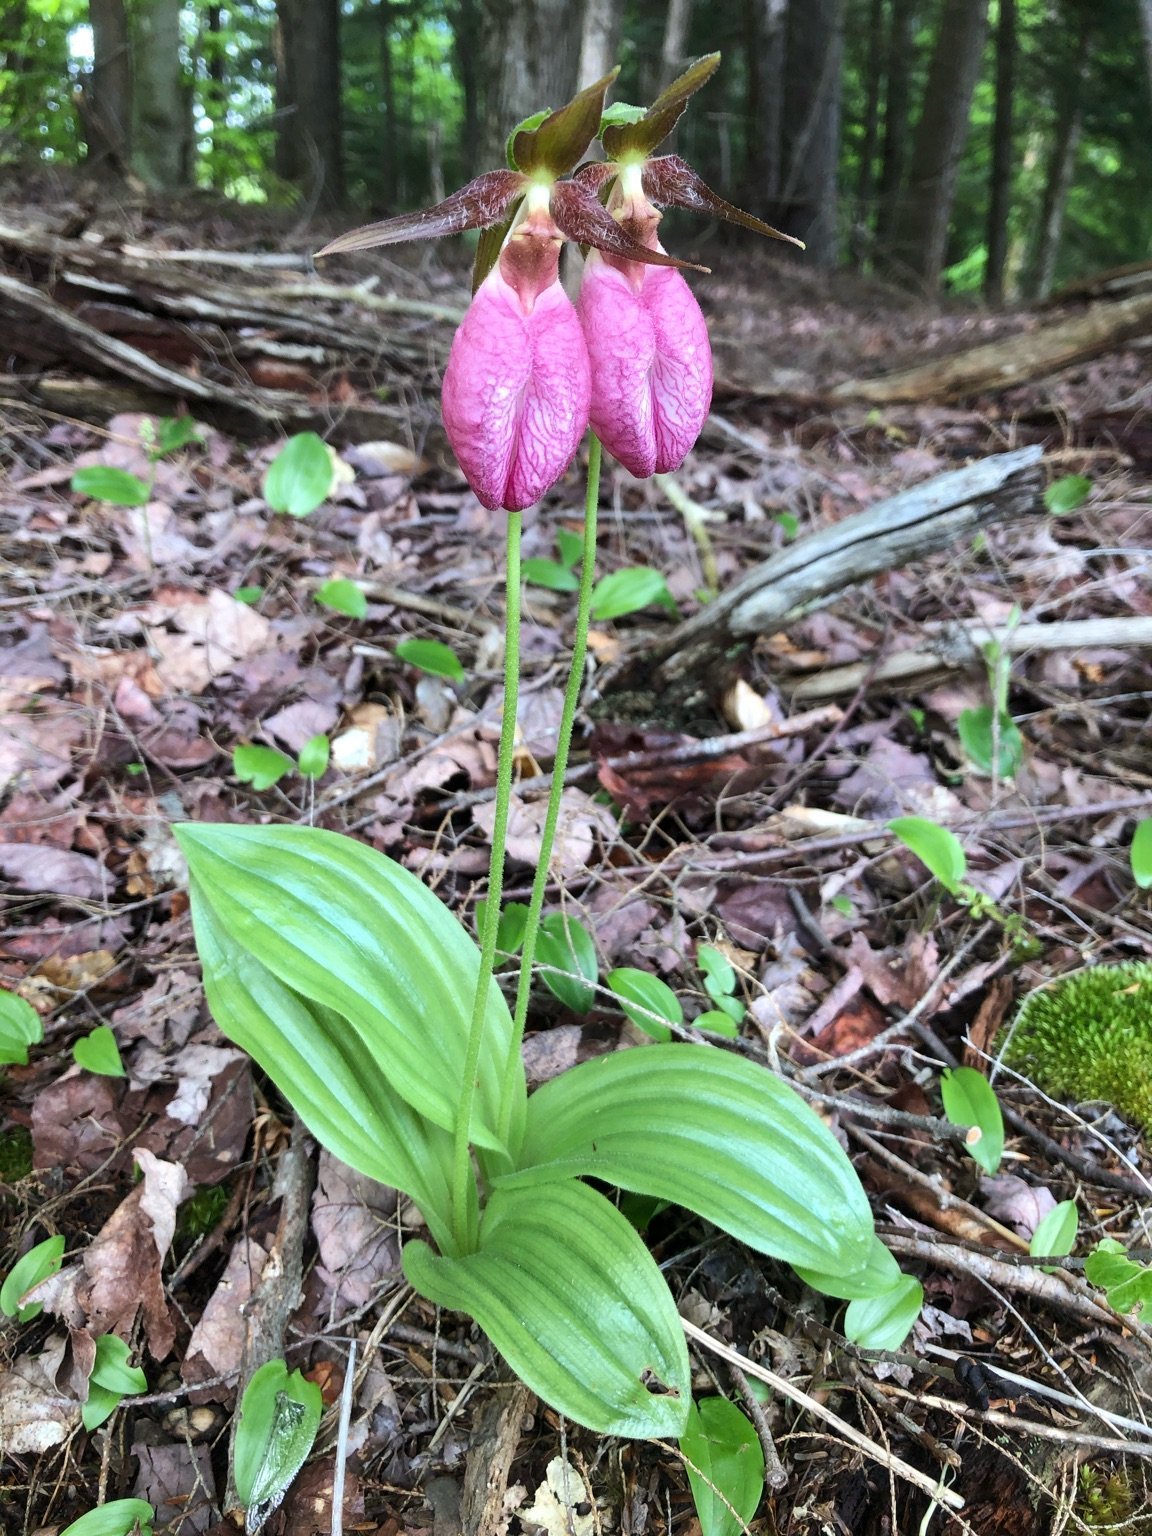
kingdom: Plantae
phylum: Tracheophyta
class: Liliopsida
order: Asparagales
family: Orchidaceae
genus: Cypripedium
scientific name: Cypripedium acaule
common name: Pink lady's-slipper
